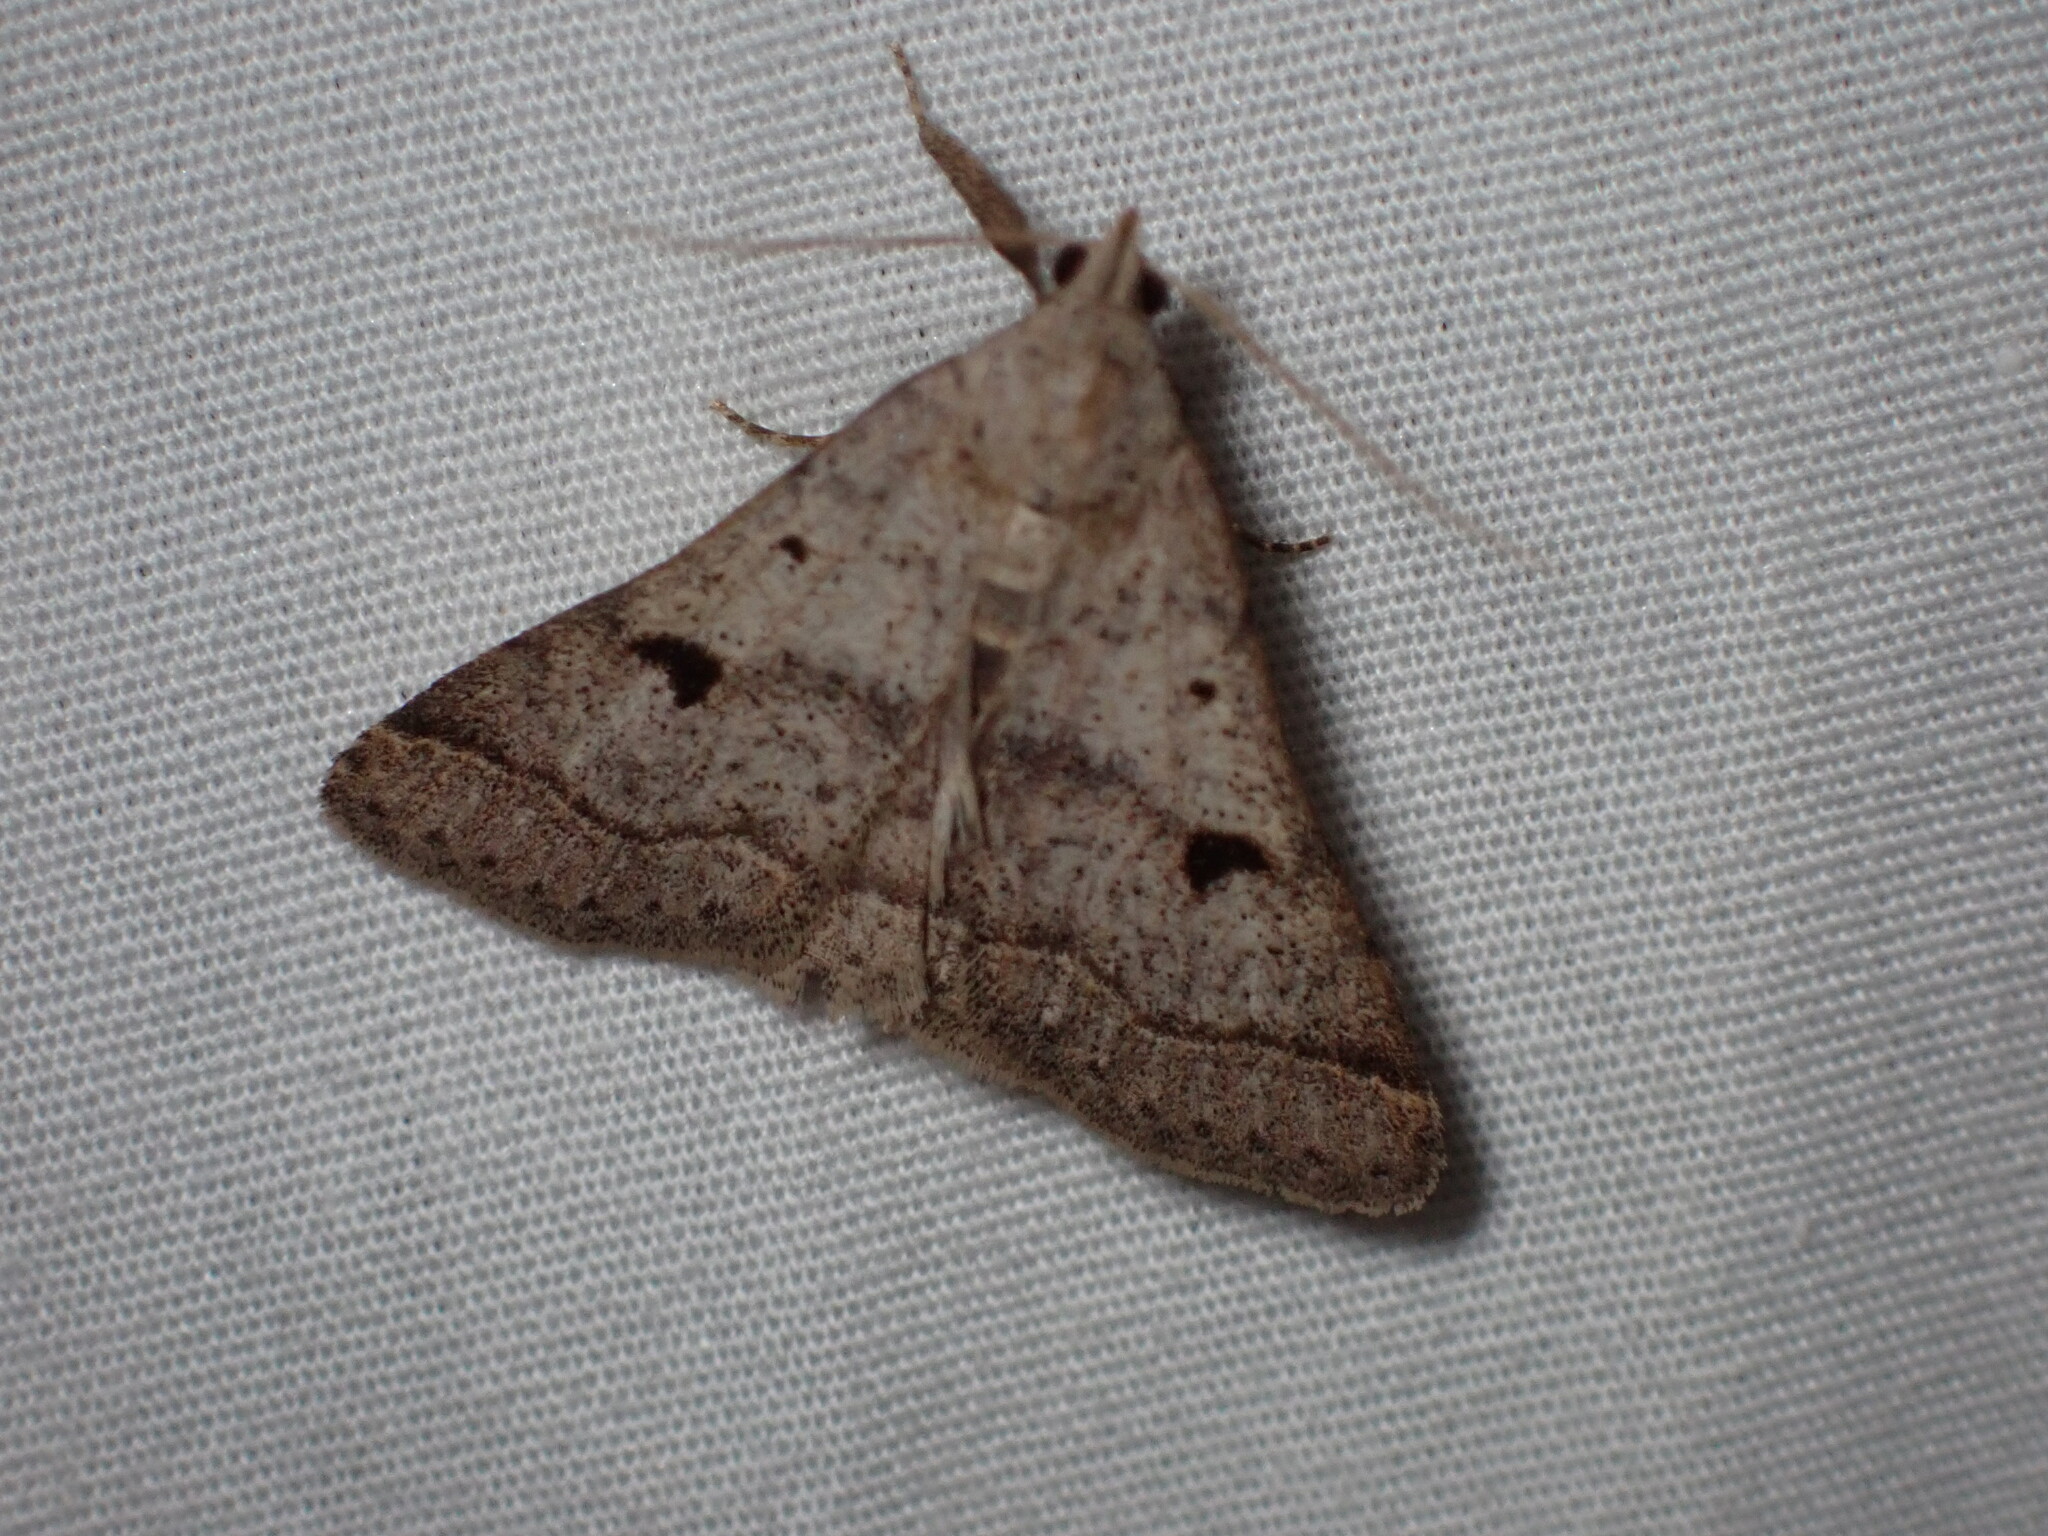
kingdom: Animalia
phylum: Arthropoda
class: Insecta
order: Lepidoptera
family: Erebidae
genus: Bleptina
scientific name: Bleptina caradrinalis
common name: Bent-winged owlet
